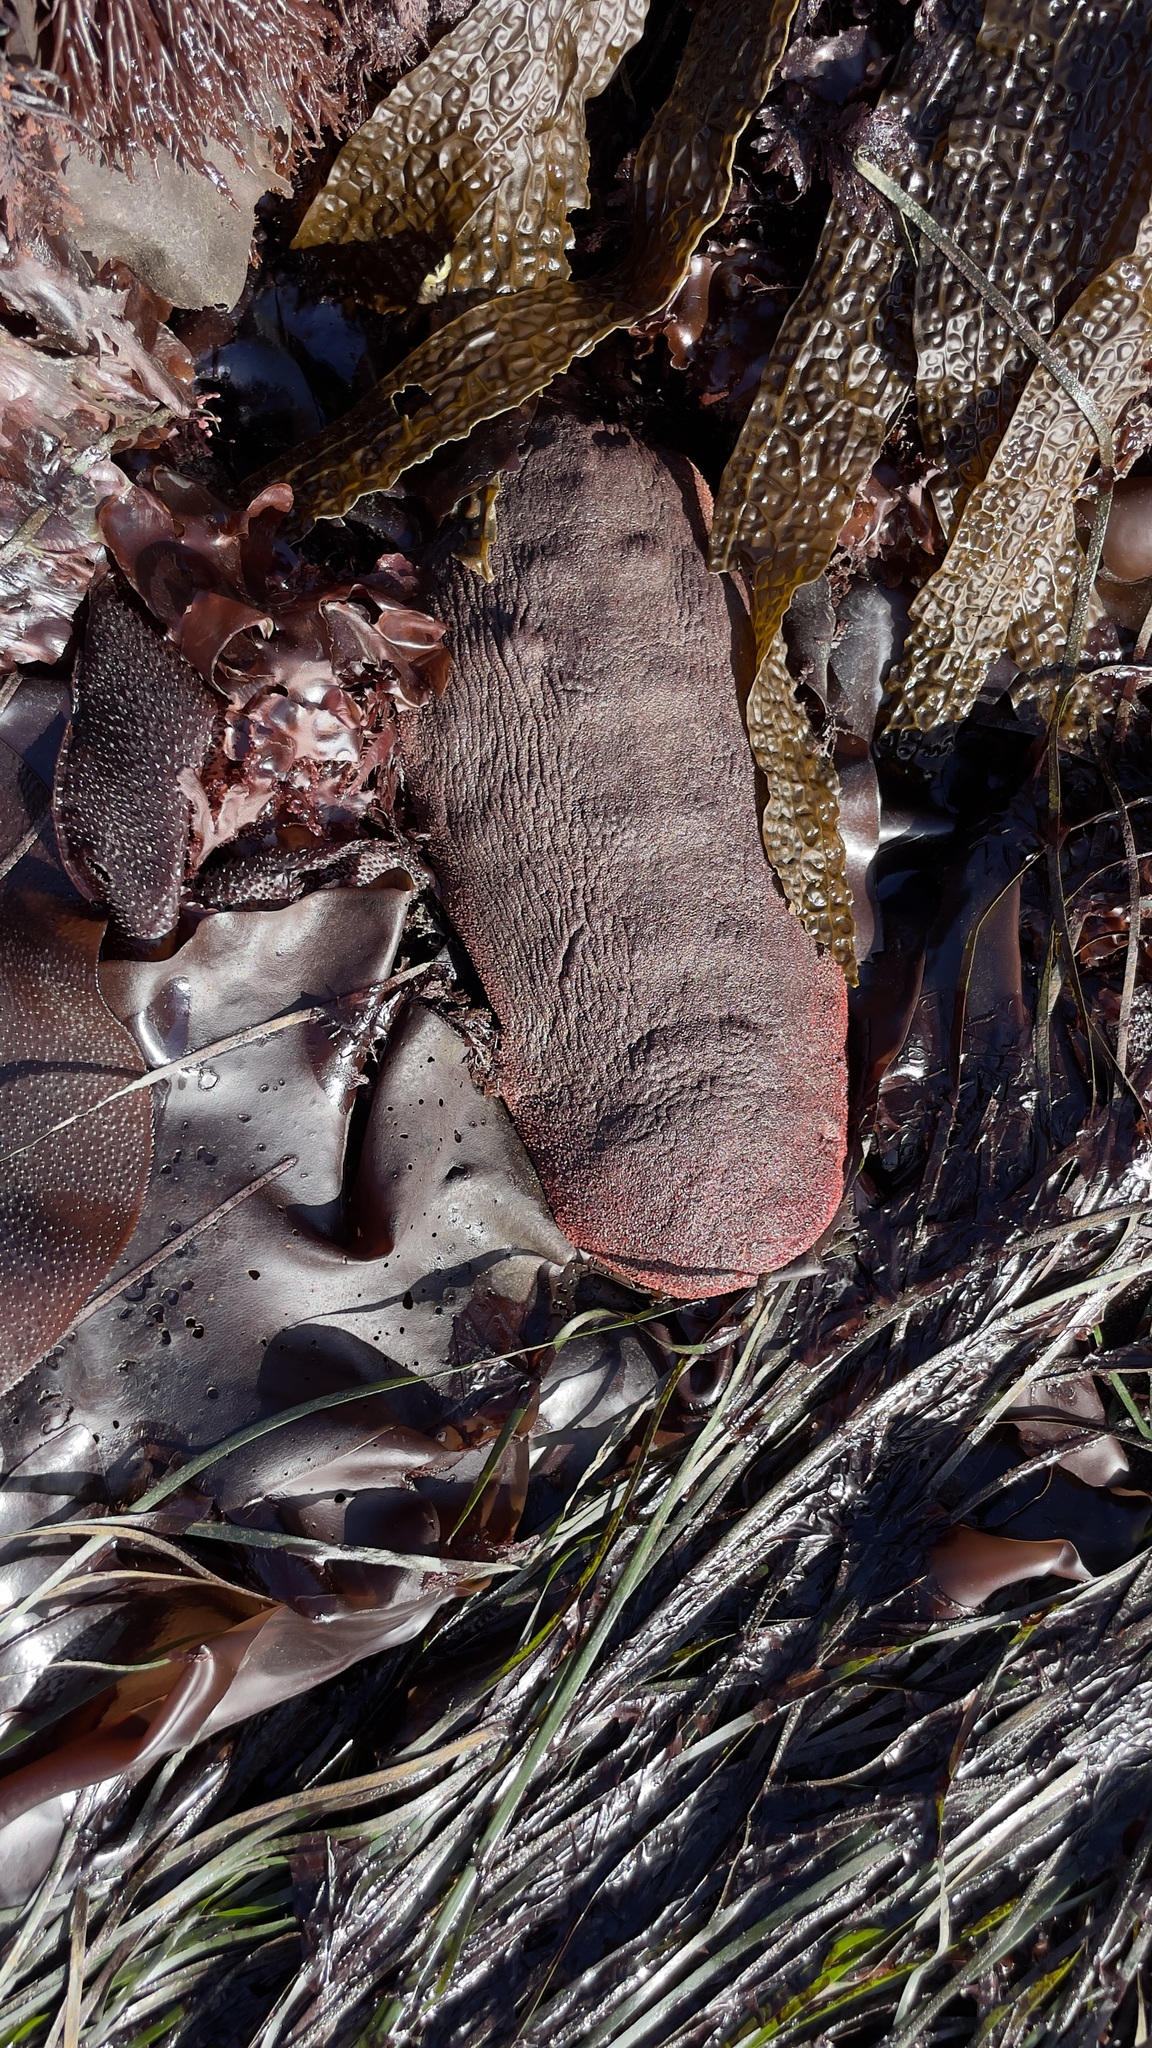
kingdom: Animalia
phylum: Mollusca
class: Polyplacophora
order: Chitonida
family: Acanthochitonidae
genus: Cryptochiton
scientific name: Cryptochiton stelleri
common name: Giant pacific chiton
